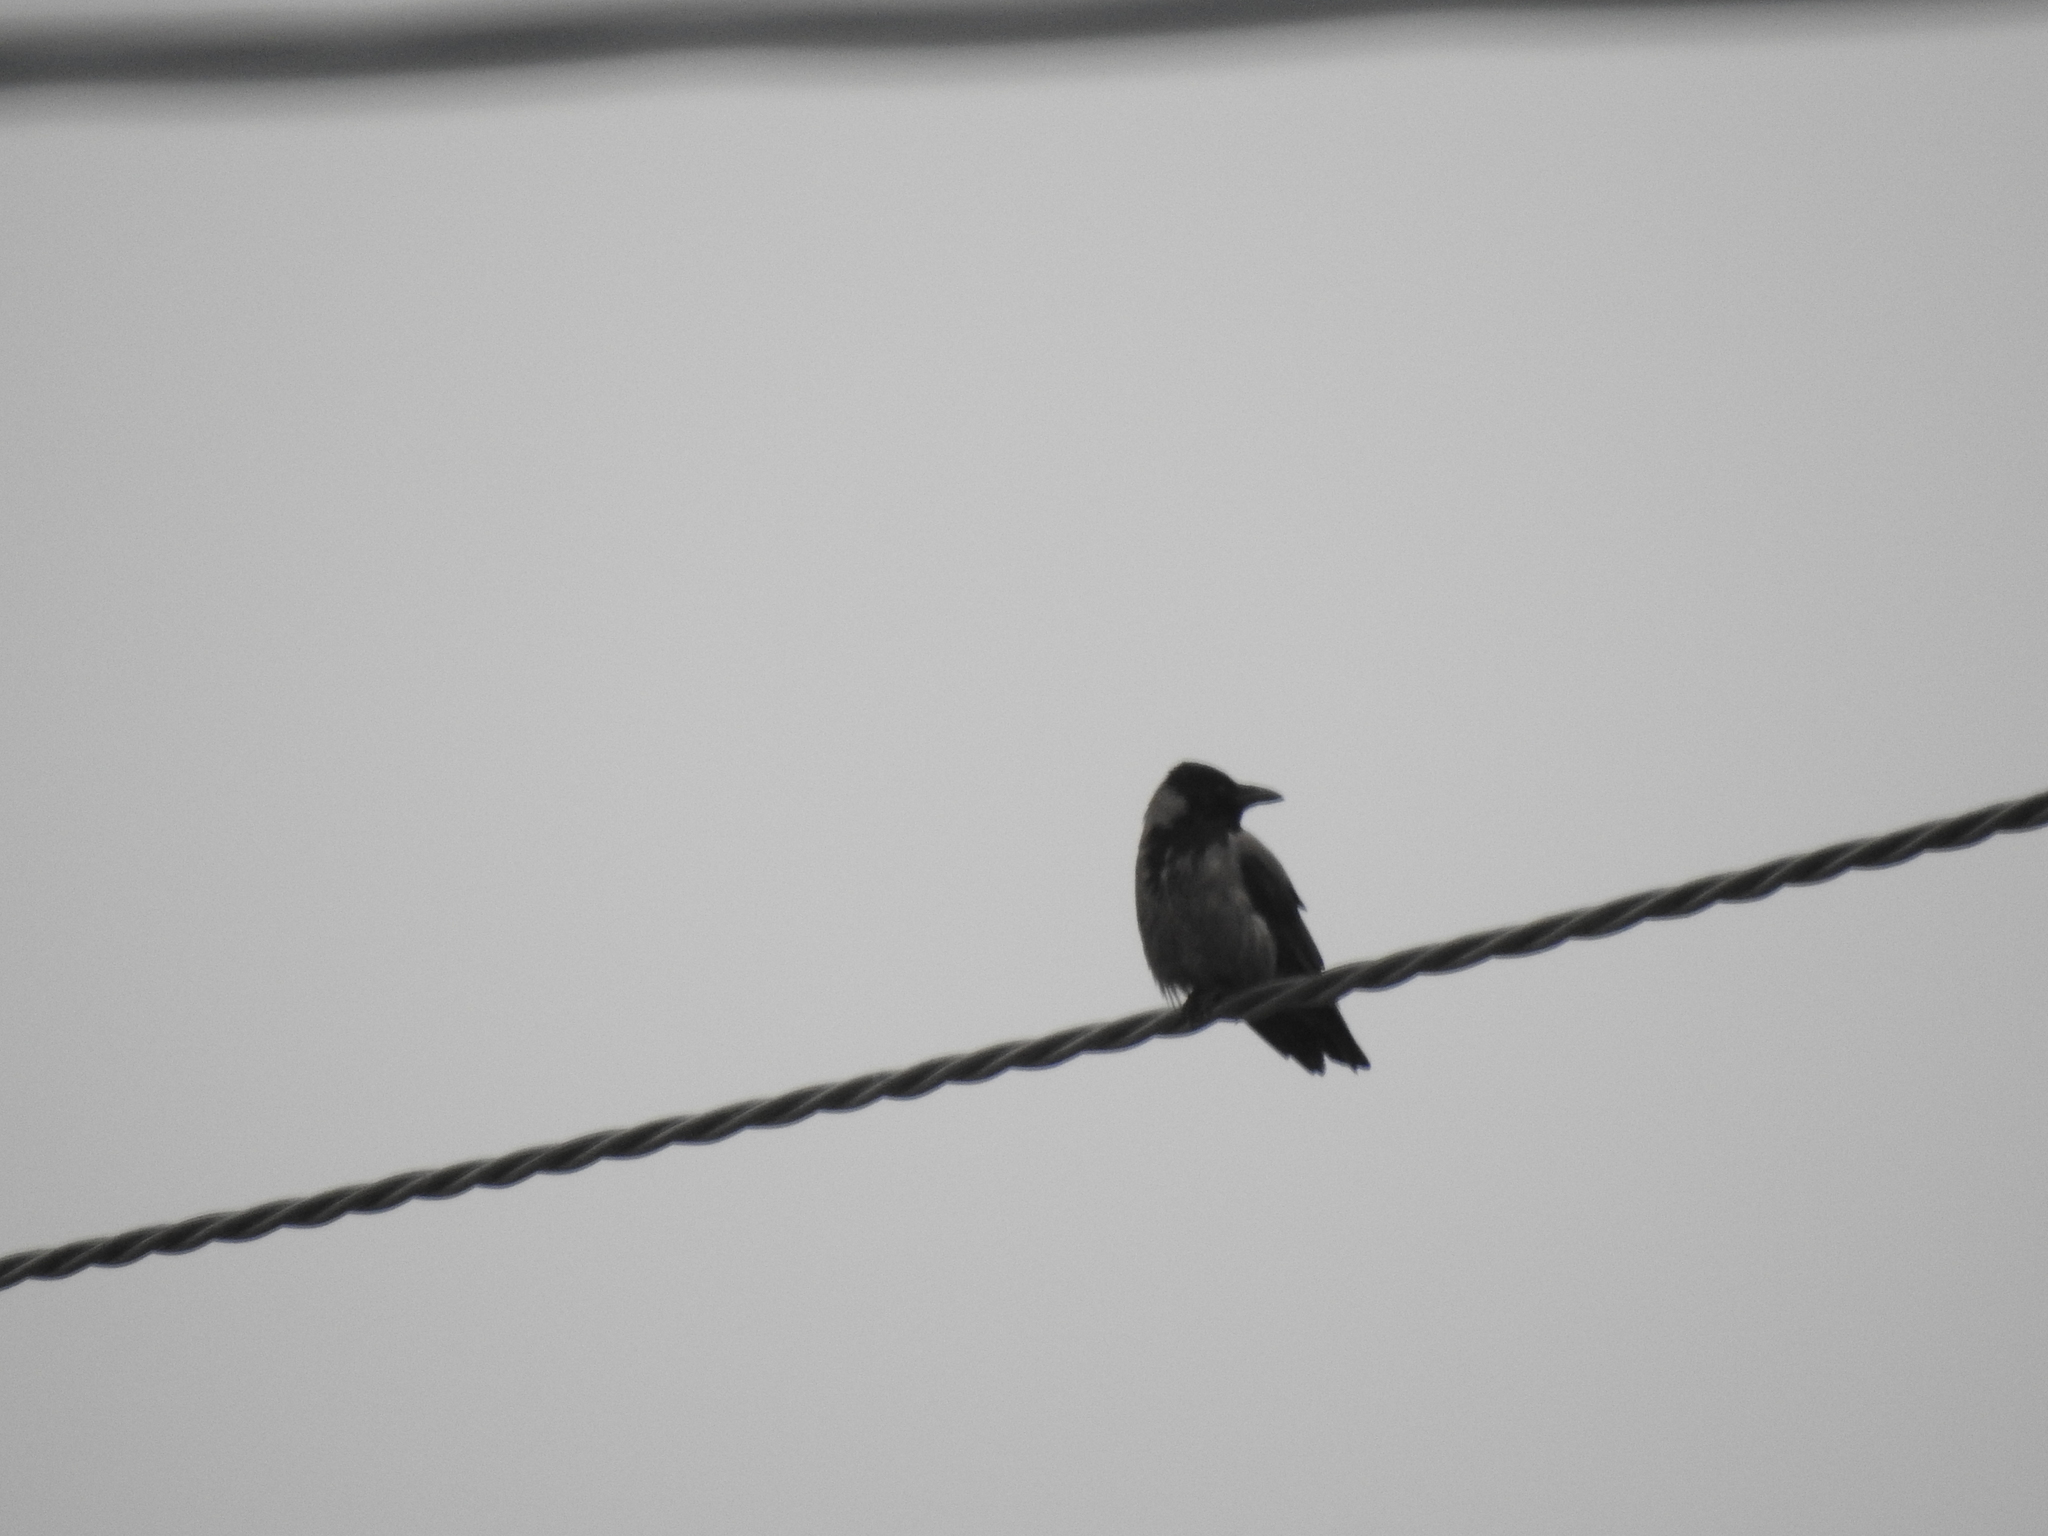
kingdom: Animalia
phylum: Chordata
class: Aves
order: Passeriformes
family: Corvidae
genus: Corvus
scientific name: Corvus cornix
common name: Hooded crow
